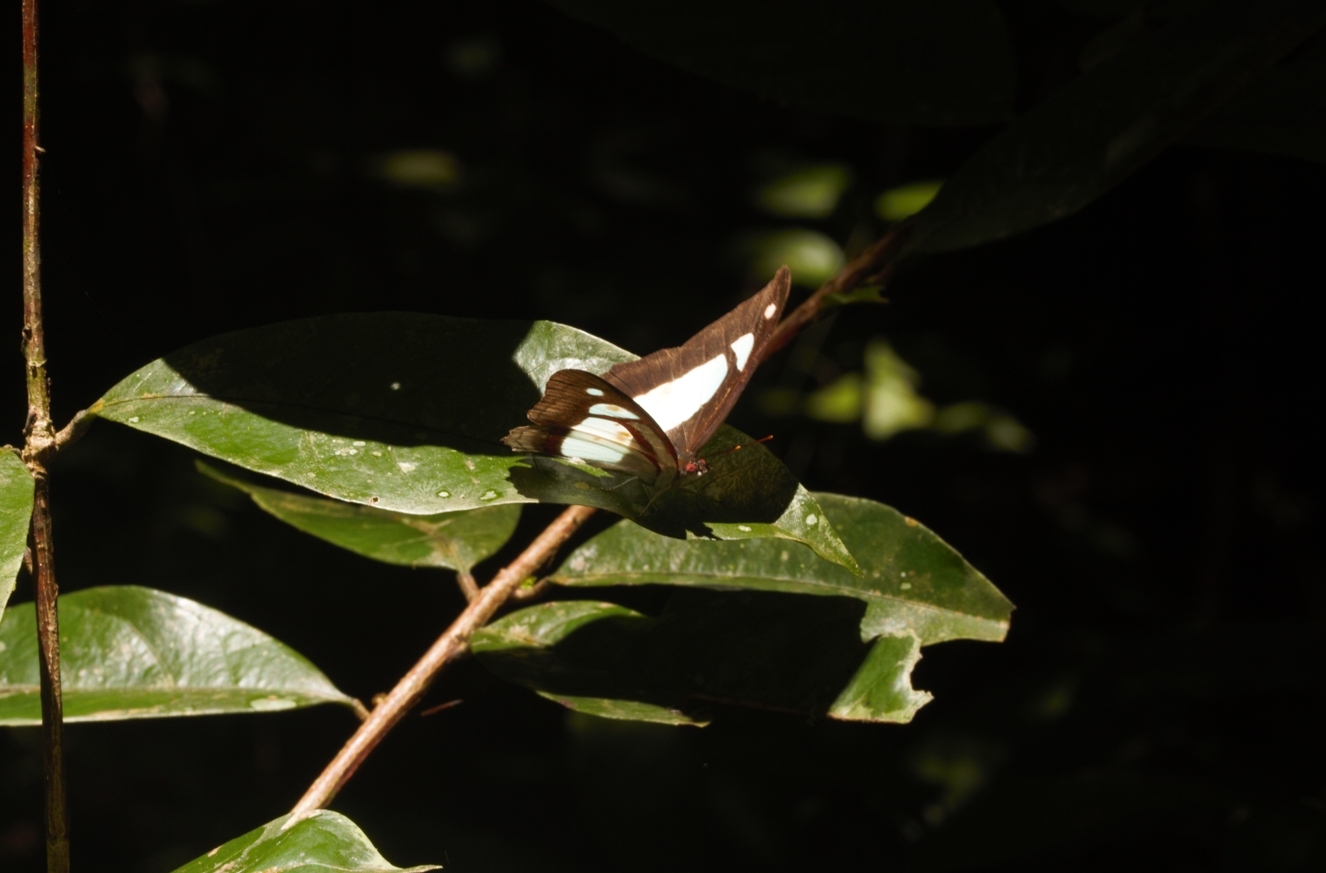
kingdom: Animalia
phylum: Arthropoda
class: Insecta
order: Lepidoptera
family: Nymphalidae
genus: Pyrrhogyra
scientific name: Pyrrhogyra edocla
